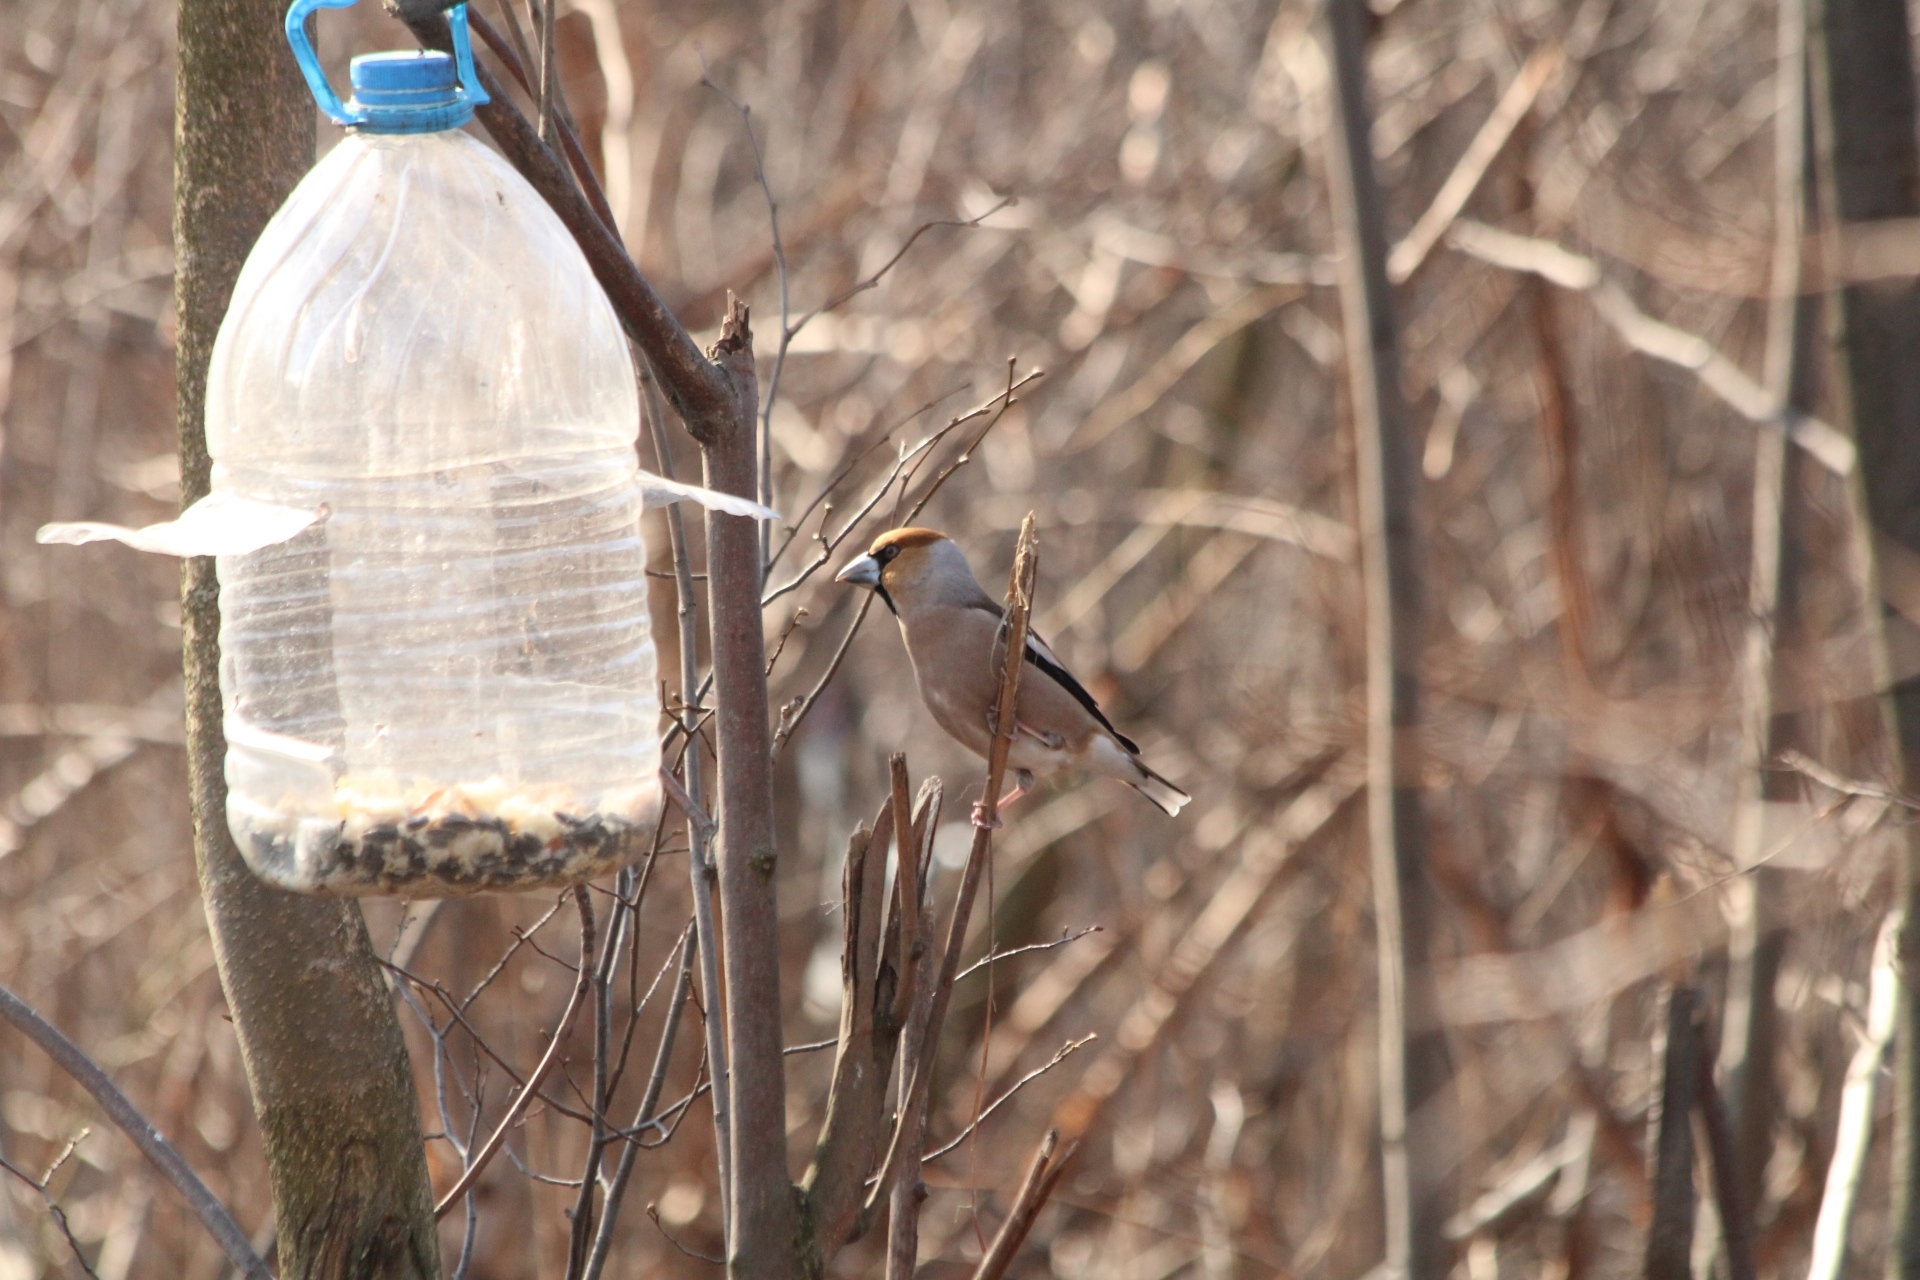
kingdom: Animalia
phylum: Chordata
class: Aves
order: Passeriformes
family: Fringillidae
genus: Coccothraustes
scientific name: Coccothraustes coccothraustes
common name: Hawfinch
